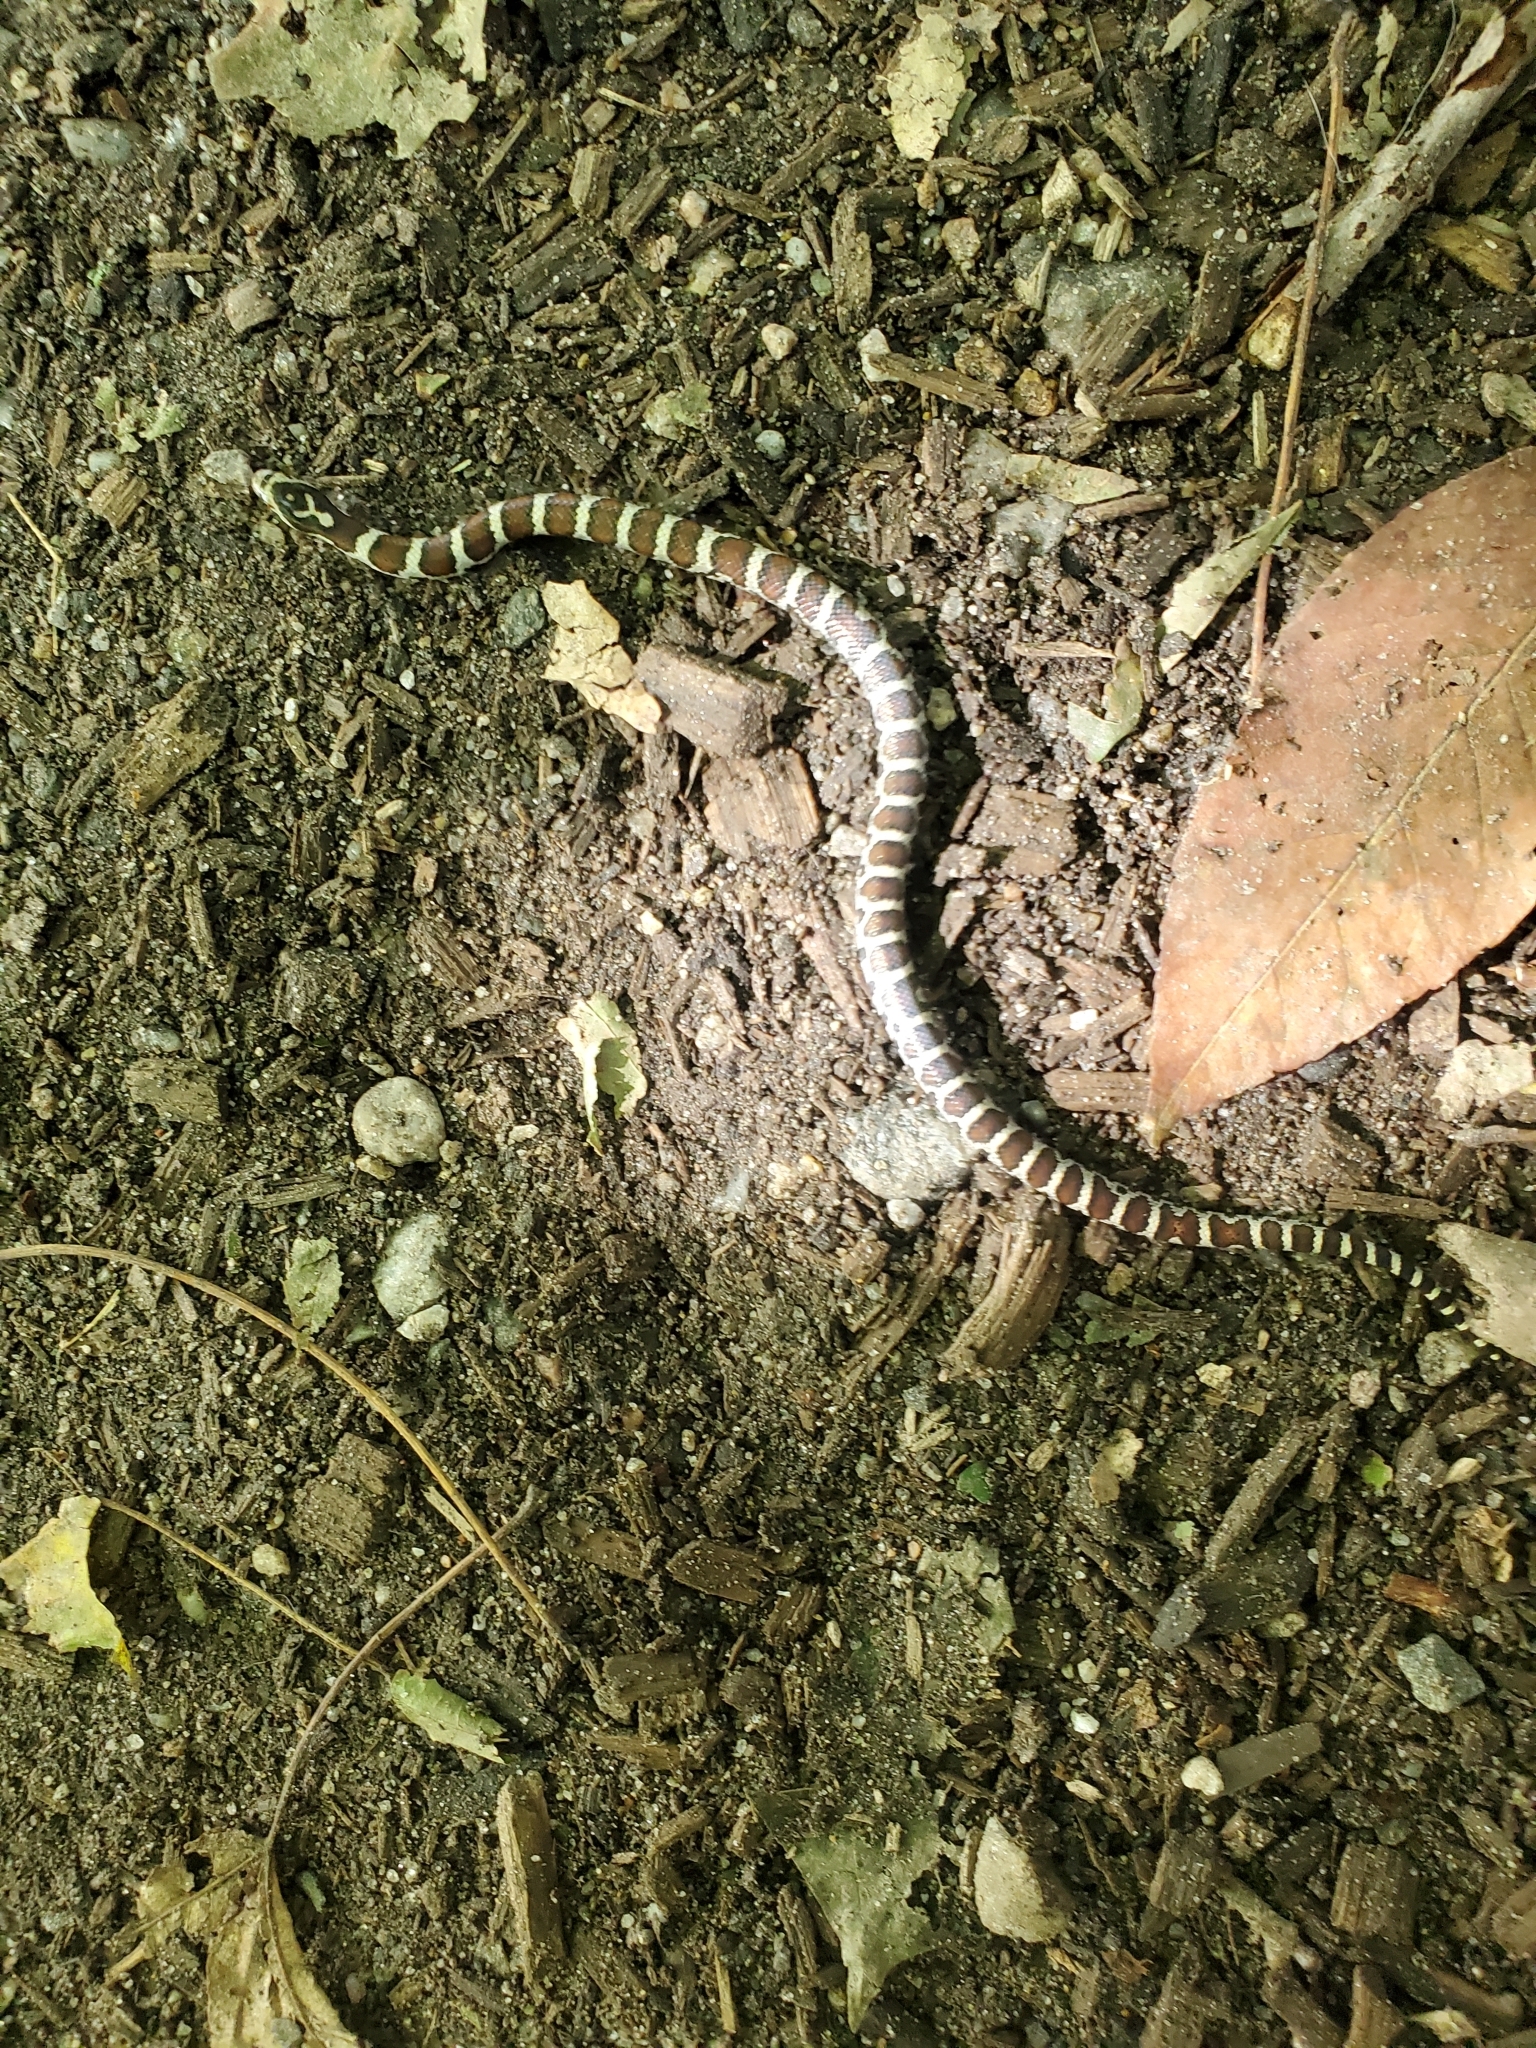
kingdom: Animalia
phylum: Chordata
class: Squamata
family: Colubridae
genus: Lampropeltis
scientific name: Lampropeltis triangulum
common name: Eastern milksnake
